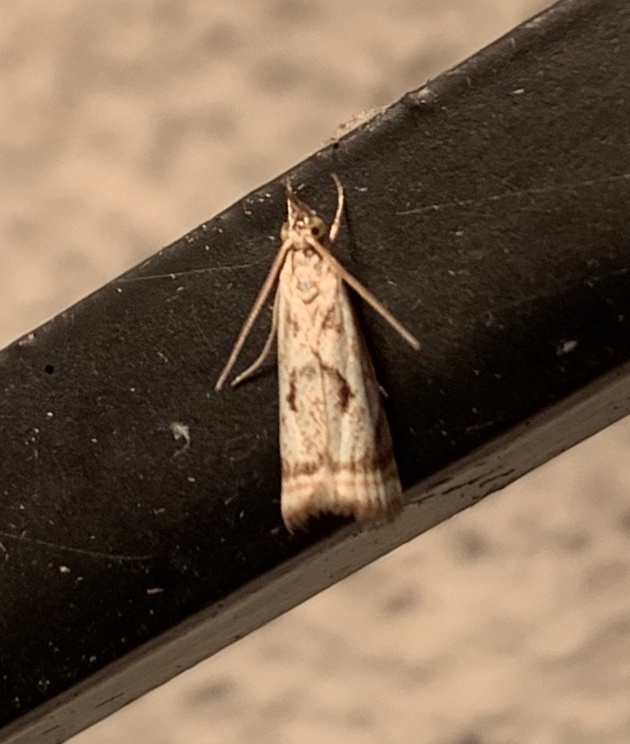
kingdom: Animalia
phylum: Arthropoda
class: Insecta
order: Lepidoptera
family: Crambidae
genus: Microcrambus
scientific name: Microcrambus elegans
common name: Elegant grass-veneer
